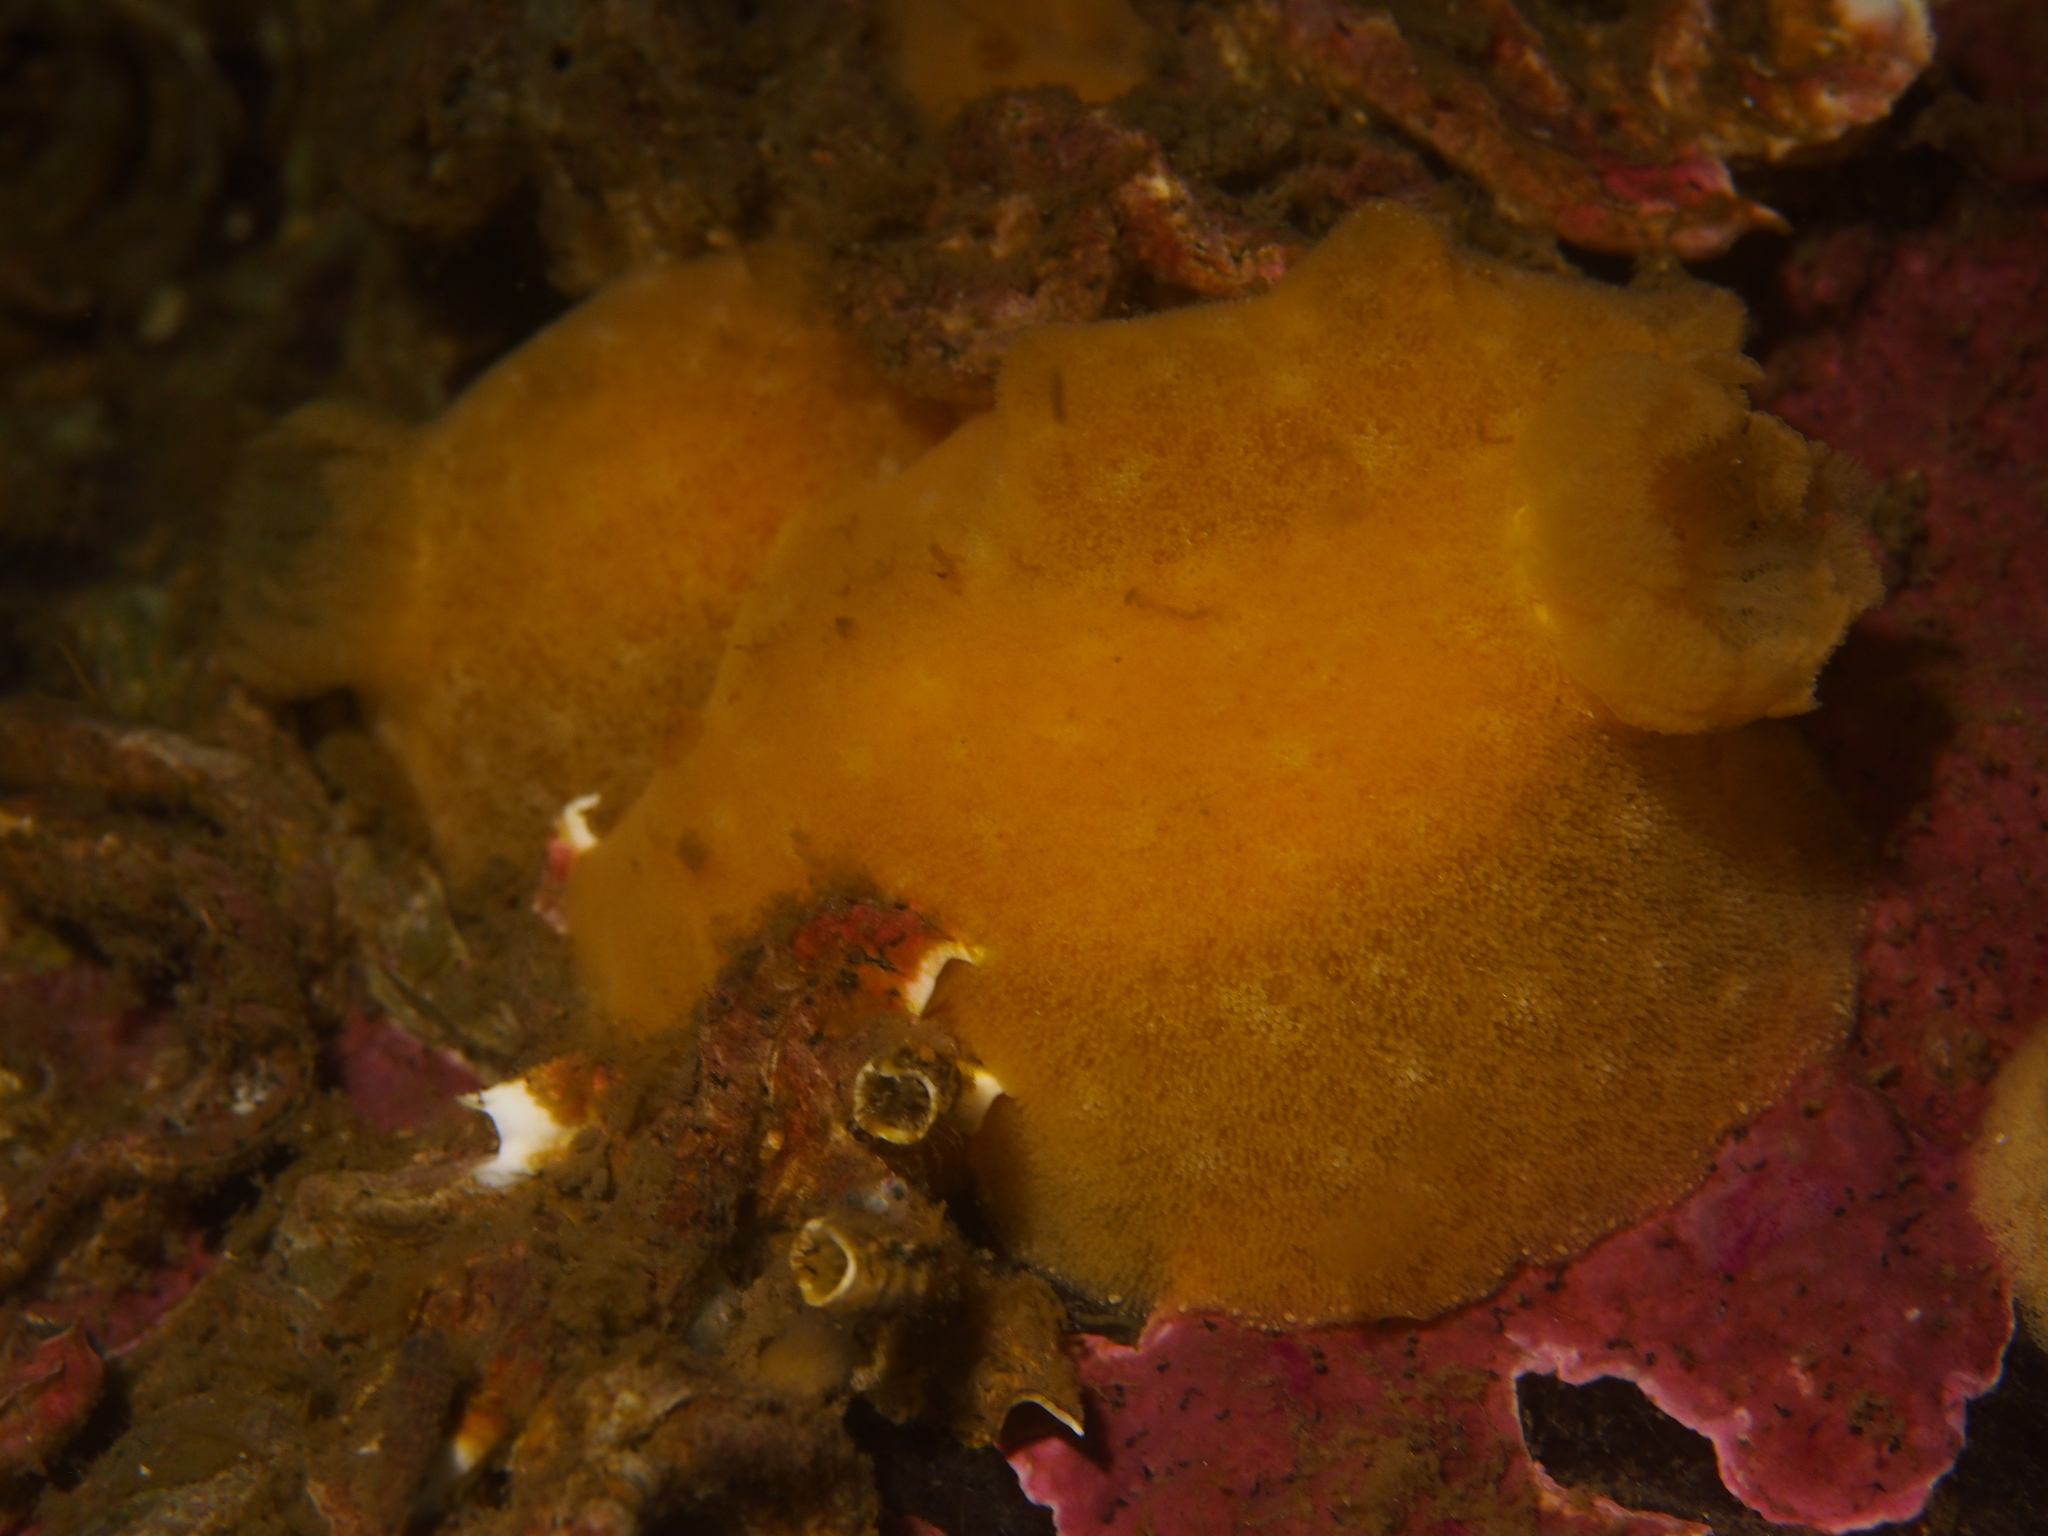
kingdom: Animalia
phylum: Mollusca
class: Gastropoda
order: Nudibranchia
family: Discodorididae
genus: Jorunna
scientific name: Jorunna tomentosa
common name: Grey sea slug
